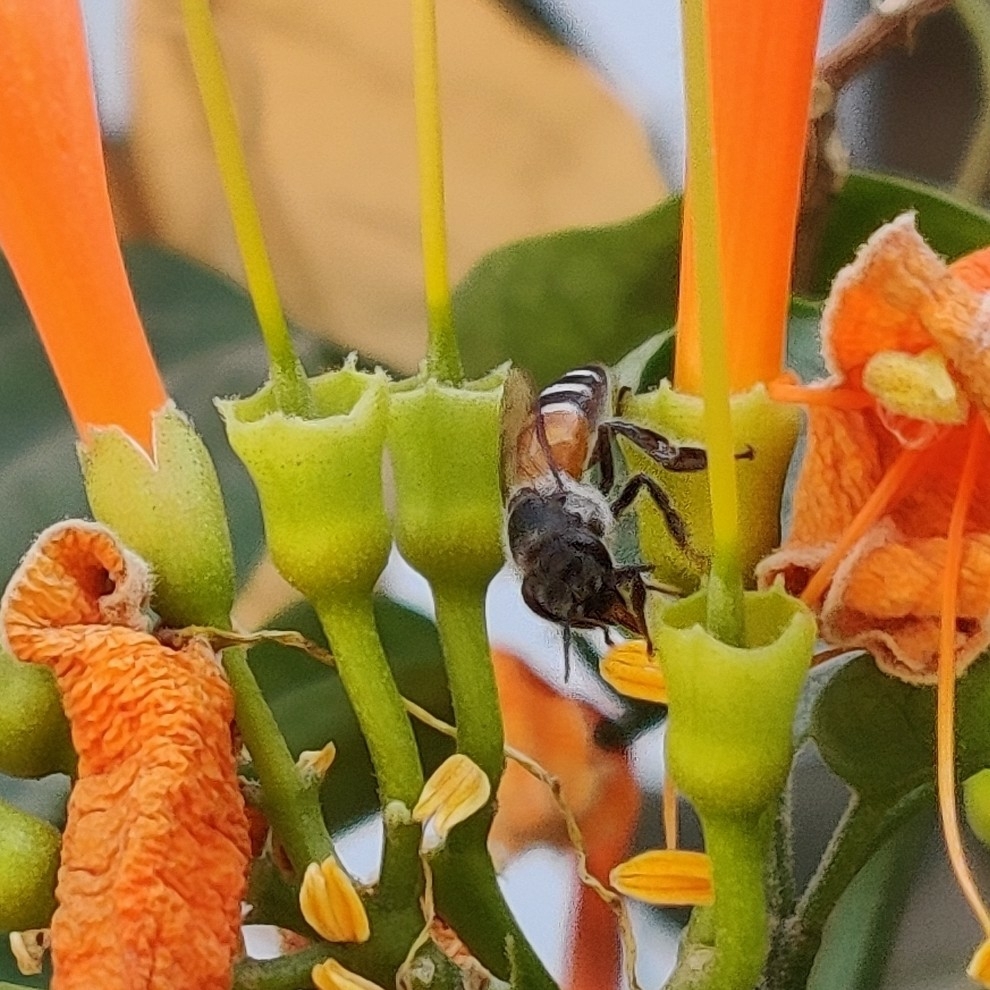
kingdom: Animalia
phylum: Arthropoda
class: Insecta
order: Hymenoptera
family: Apidae
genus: Apis
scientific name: Apis florea
